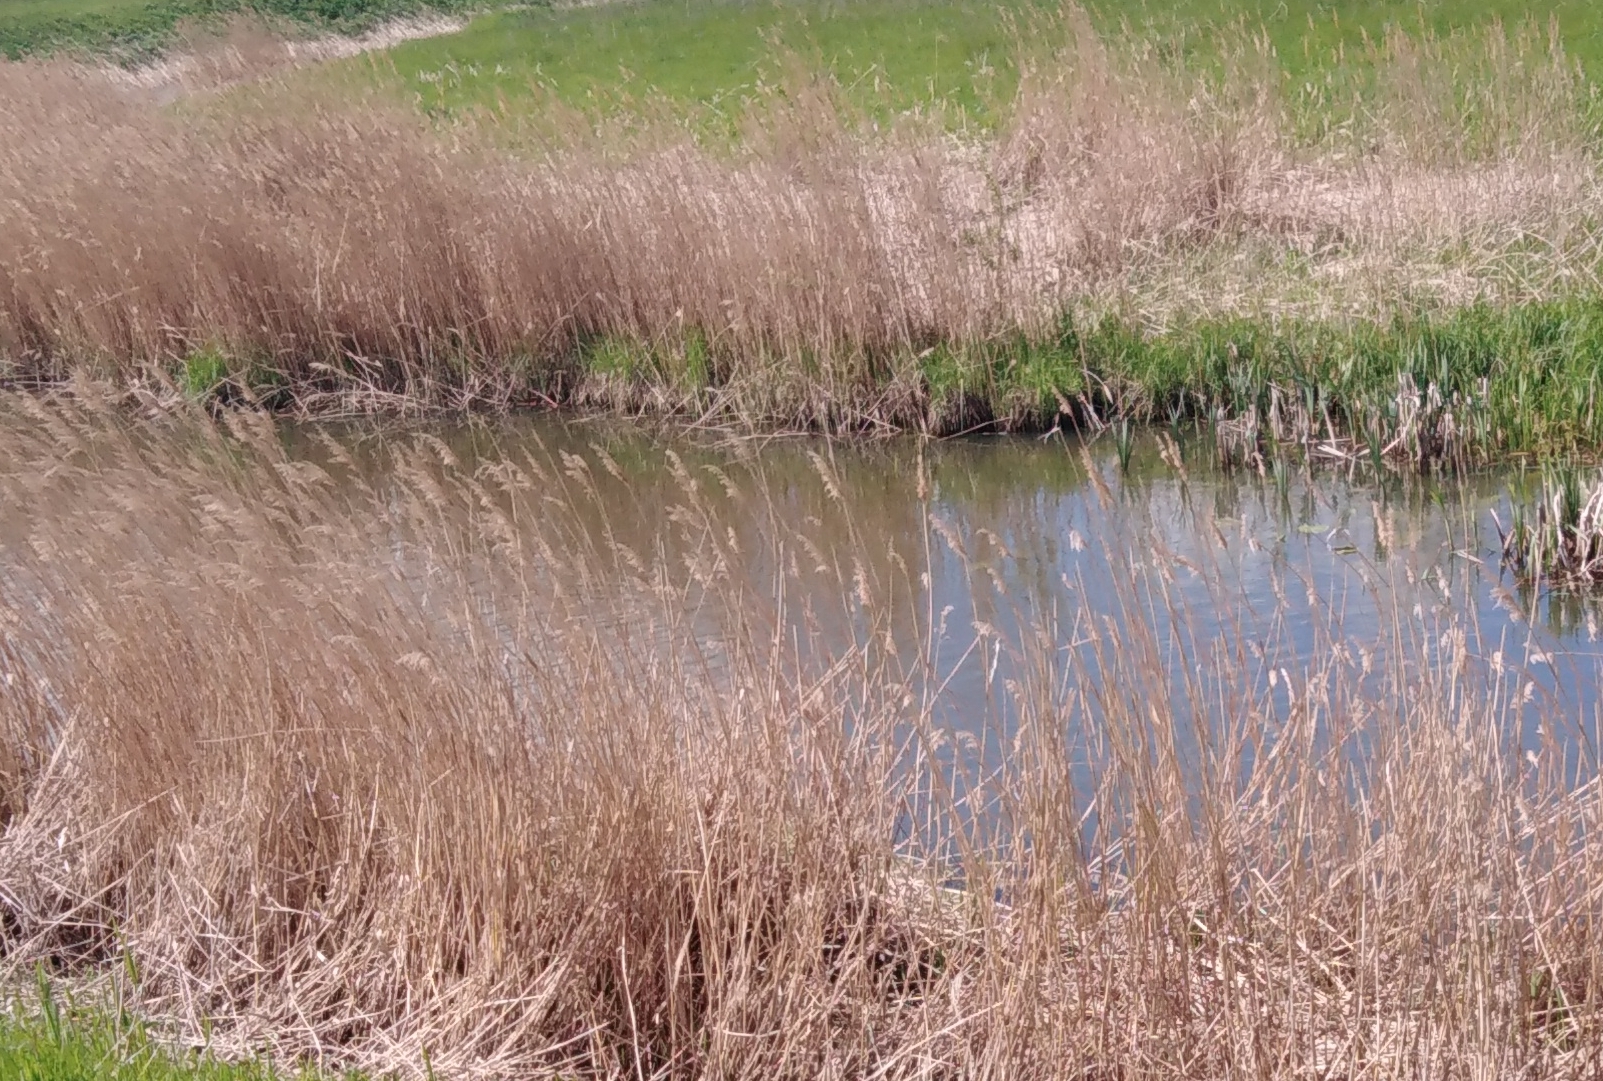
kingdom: Plantae
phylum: Tracheophyta
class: Liliopsida
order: Poales
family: Poaceae
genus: Phragmites
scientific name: Phragmites australis
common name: Common reed
